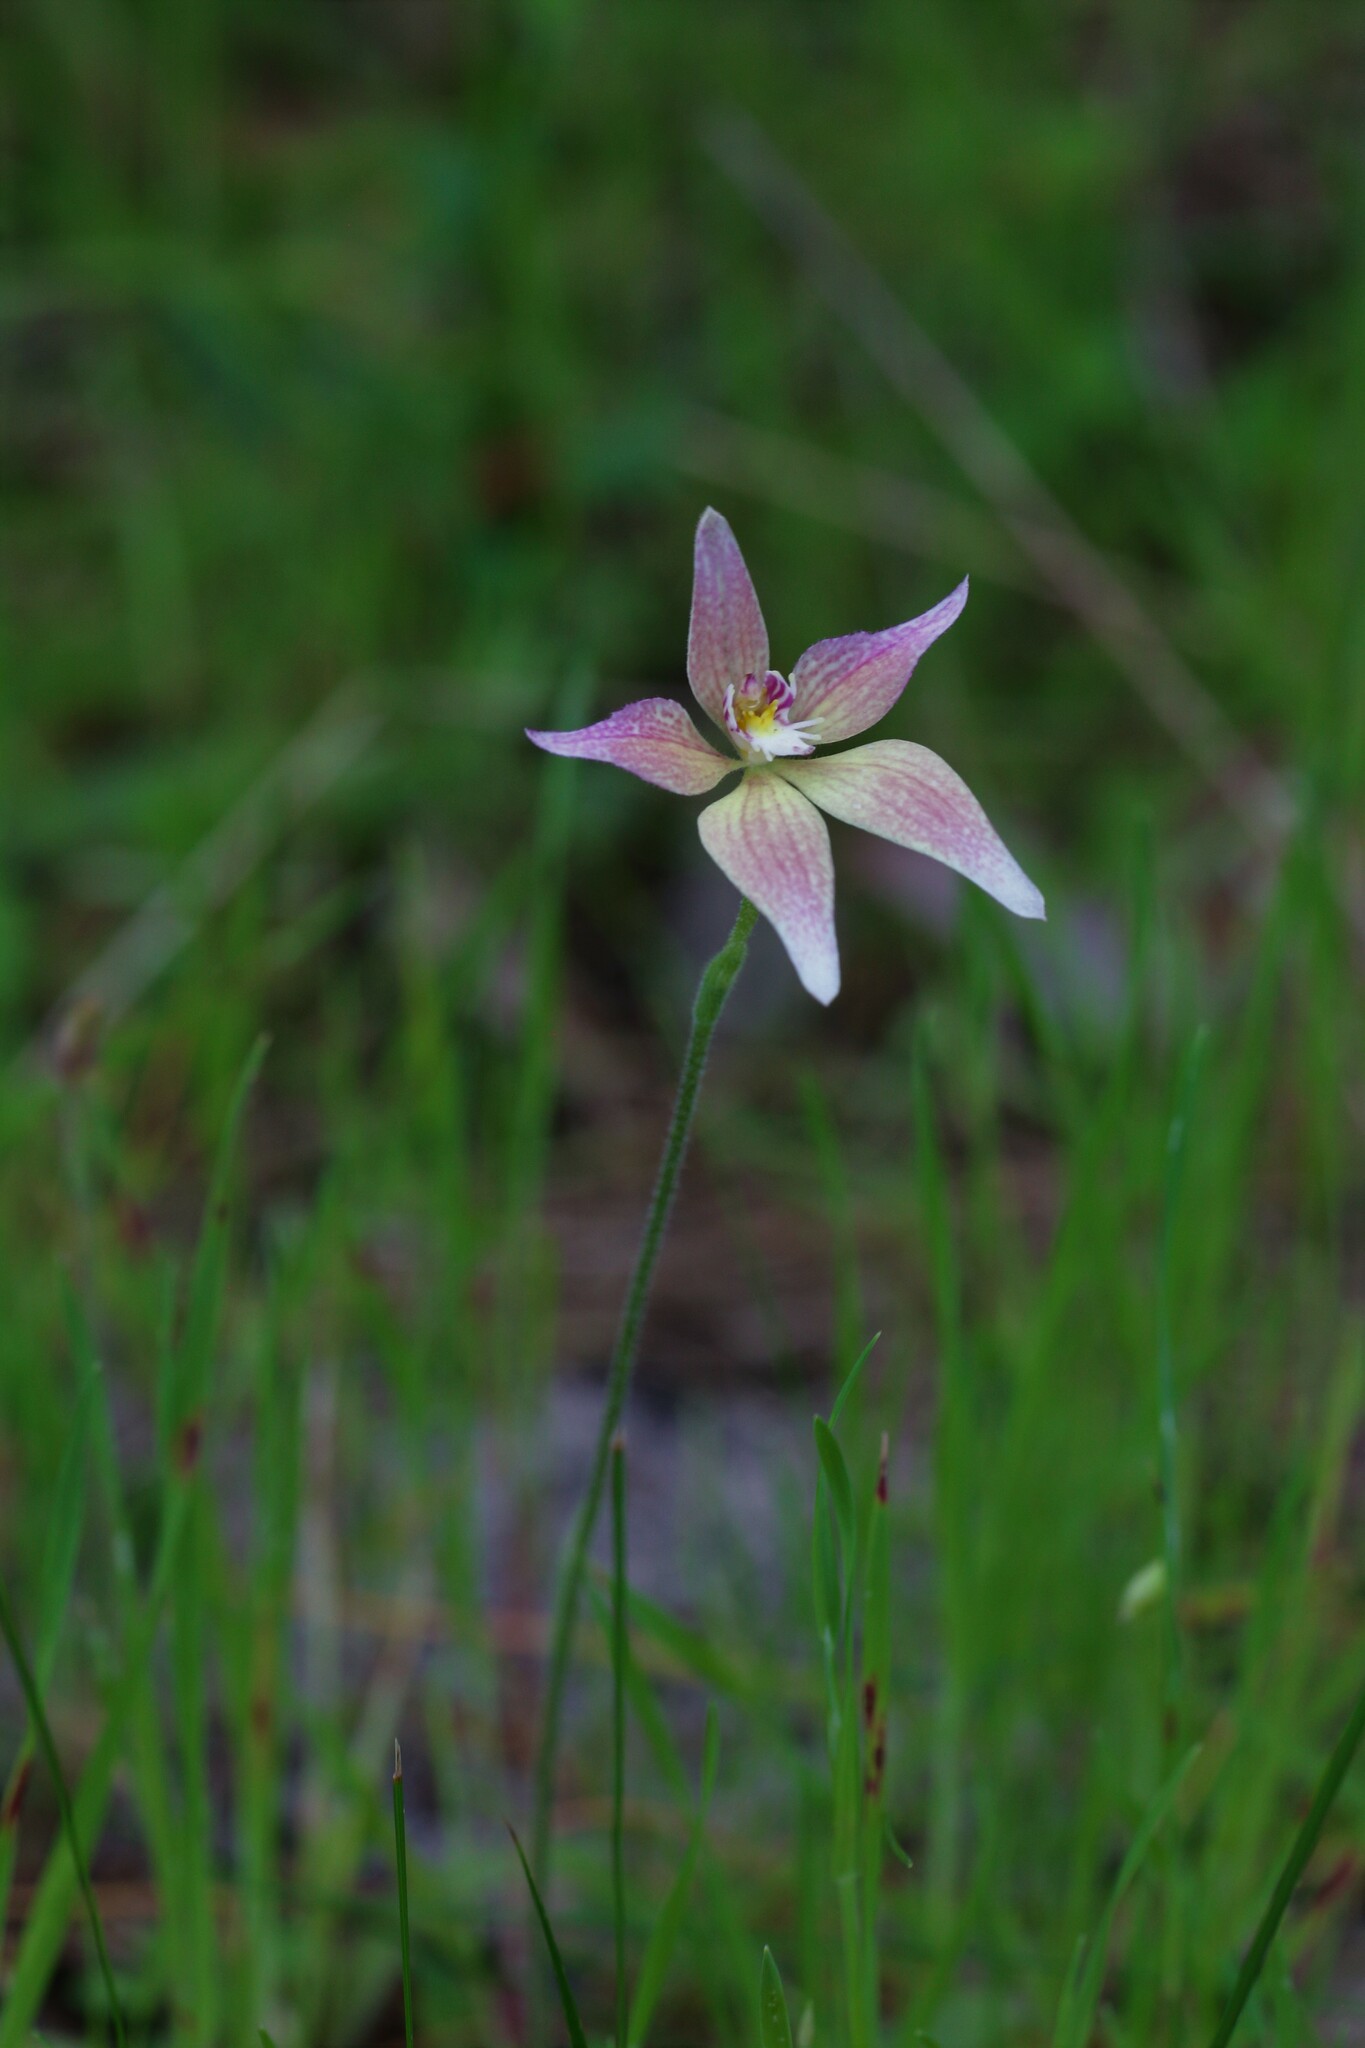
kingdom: Plantae
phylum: Tracheophyta
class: Liliopsida
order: Asparagales
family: Orchidaceae
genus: Caladenia
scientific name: Caladenia spectabilis
